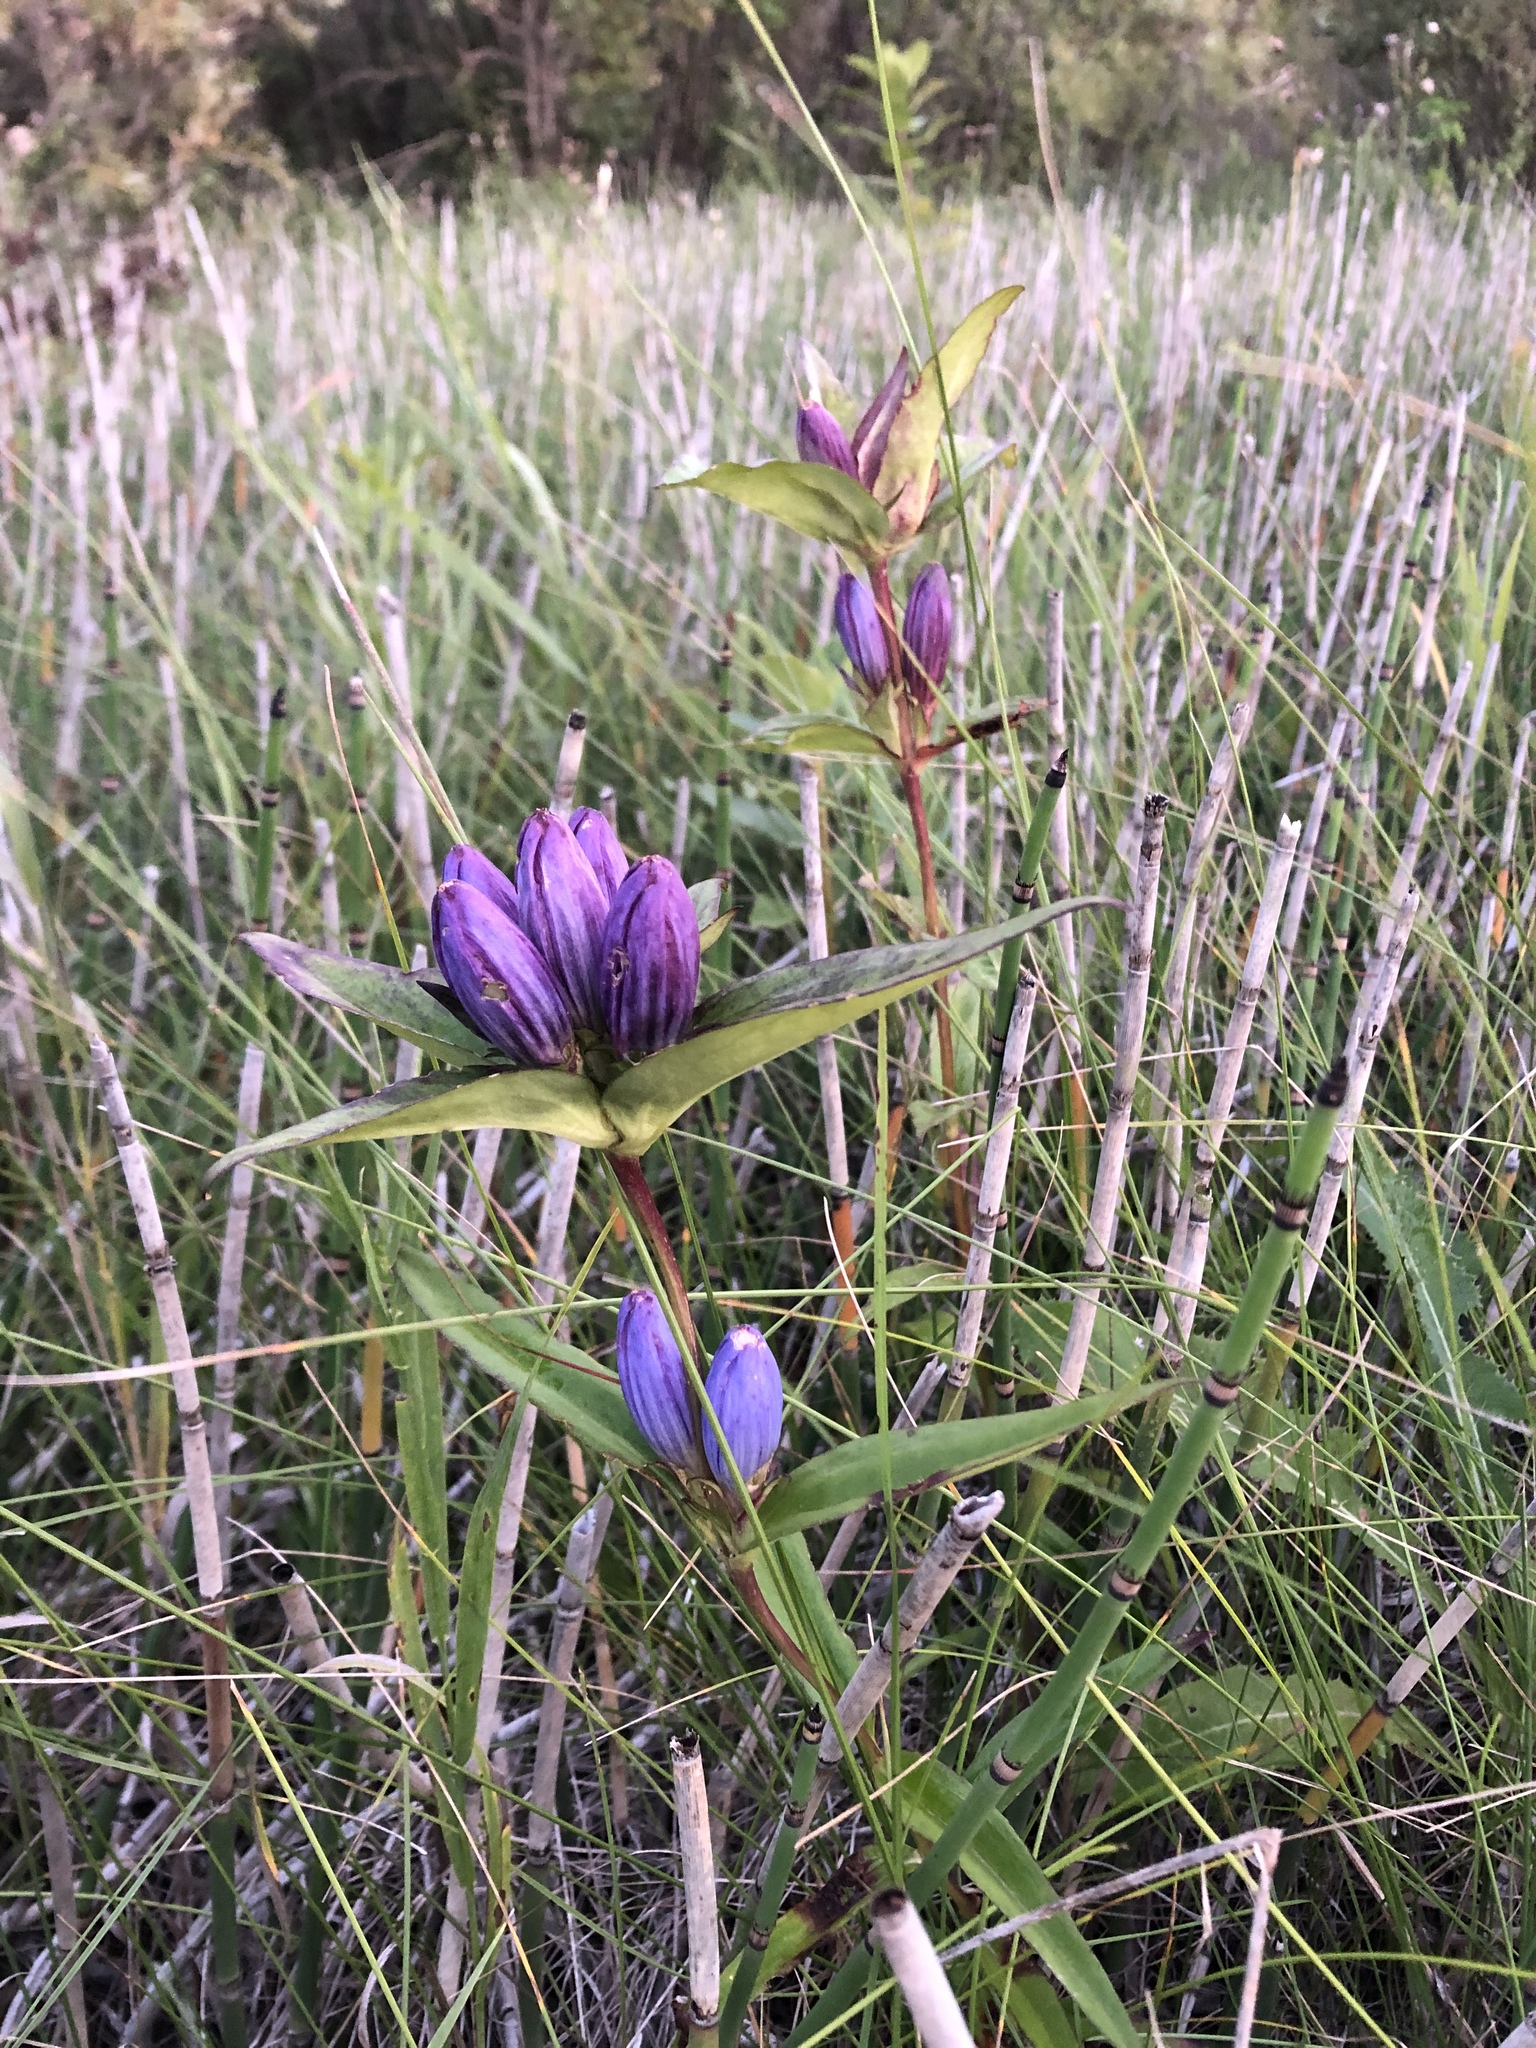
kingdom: Plantae
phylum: Tracheophyta
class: Magnoliopsida
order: Gentianales
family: Gentianaceae
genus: Gentiana
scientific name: Gentiana andrewsii
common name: Bottle gentian
